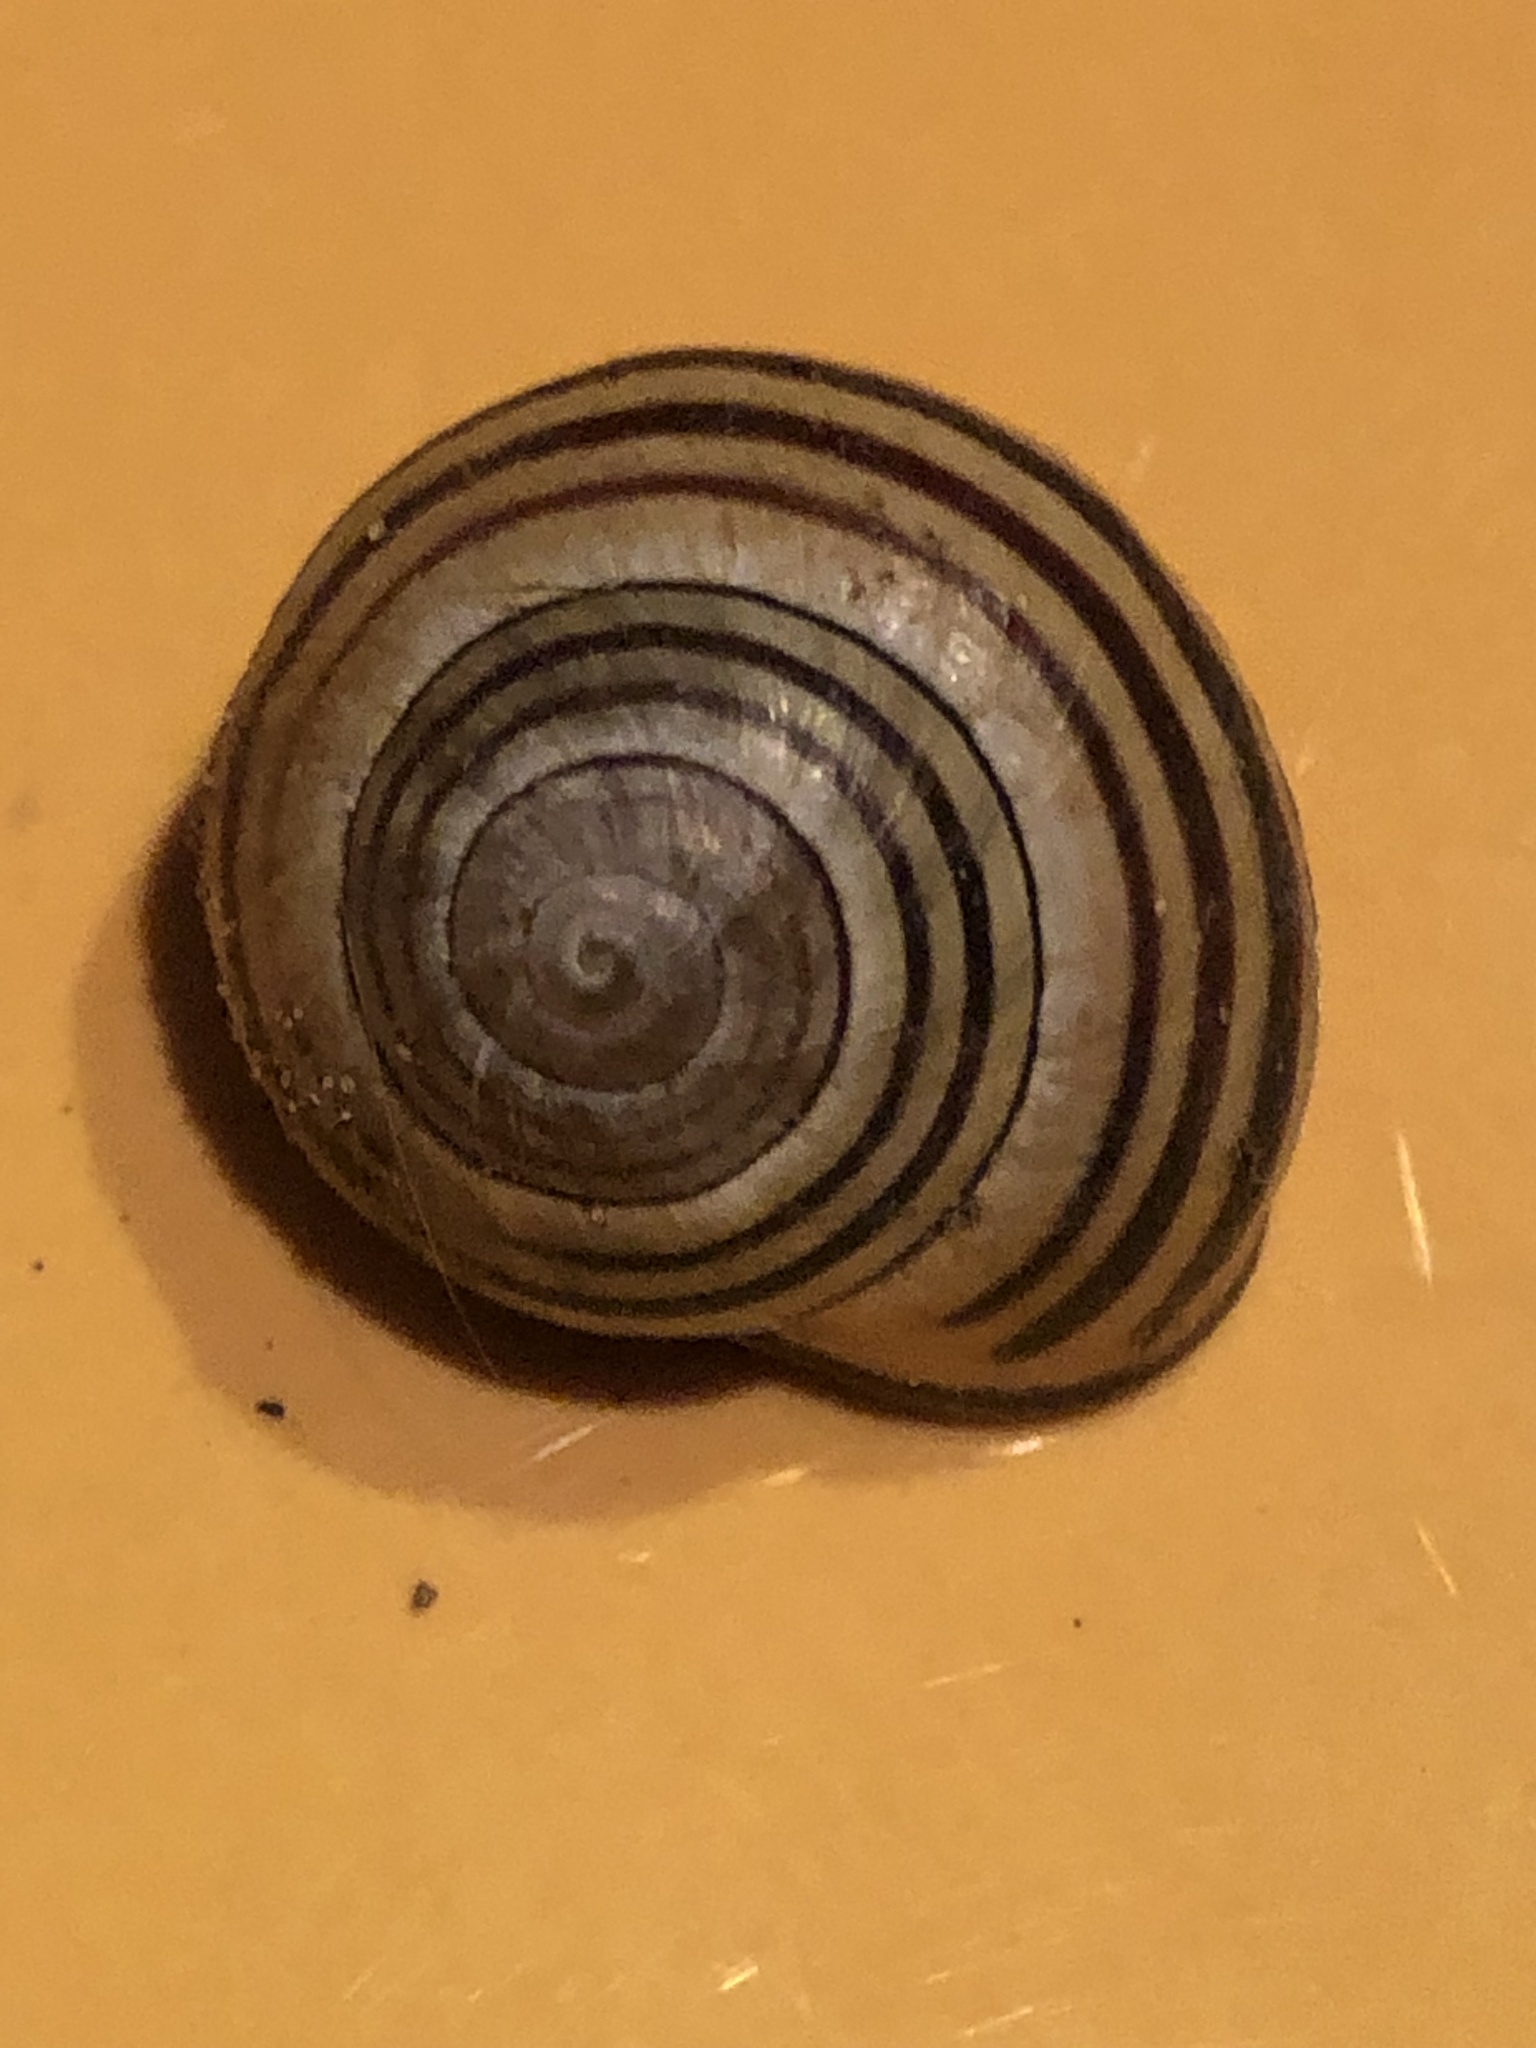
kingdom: Animalia
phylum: Mollusca
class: Gastropoda
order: Stylommatophora
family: Helicidae
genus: Cepaea
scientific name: Cepaea nemoralis
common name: Grovesnail
